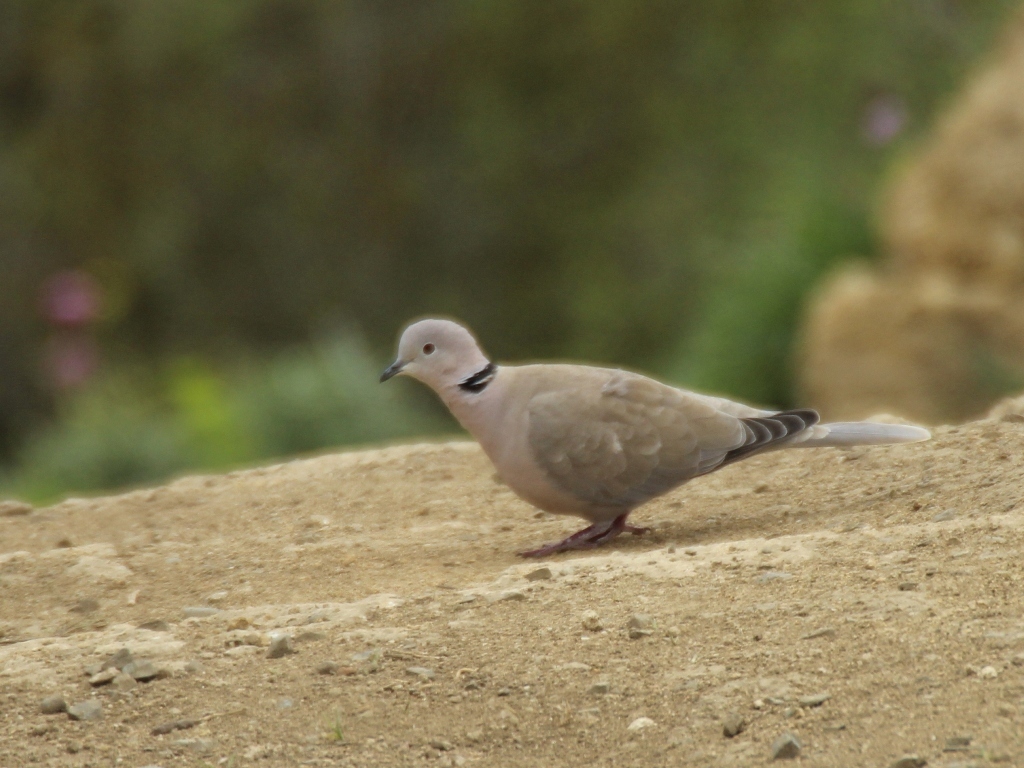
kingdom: Animalia
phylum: Chordata
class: Aves
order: Columbiformes
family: Columbidae
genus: Streptopelia
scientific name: Streptopelia decaocto
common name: Eurasian collared dove
